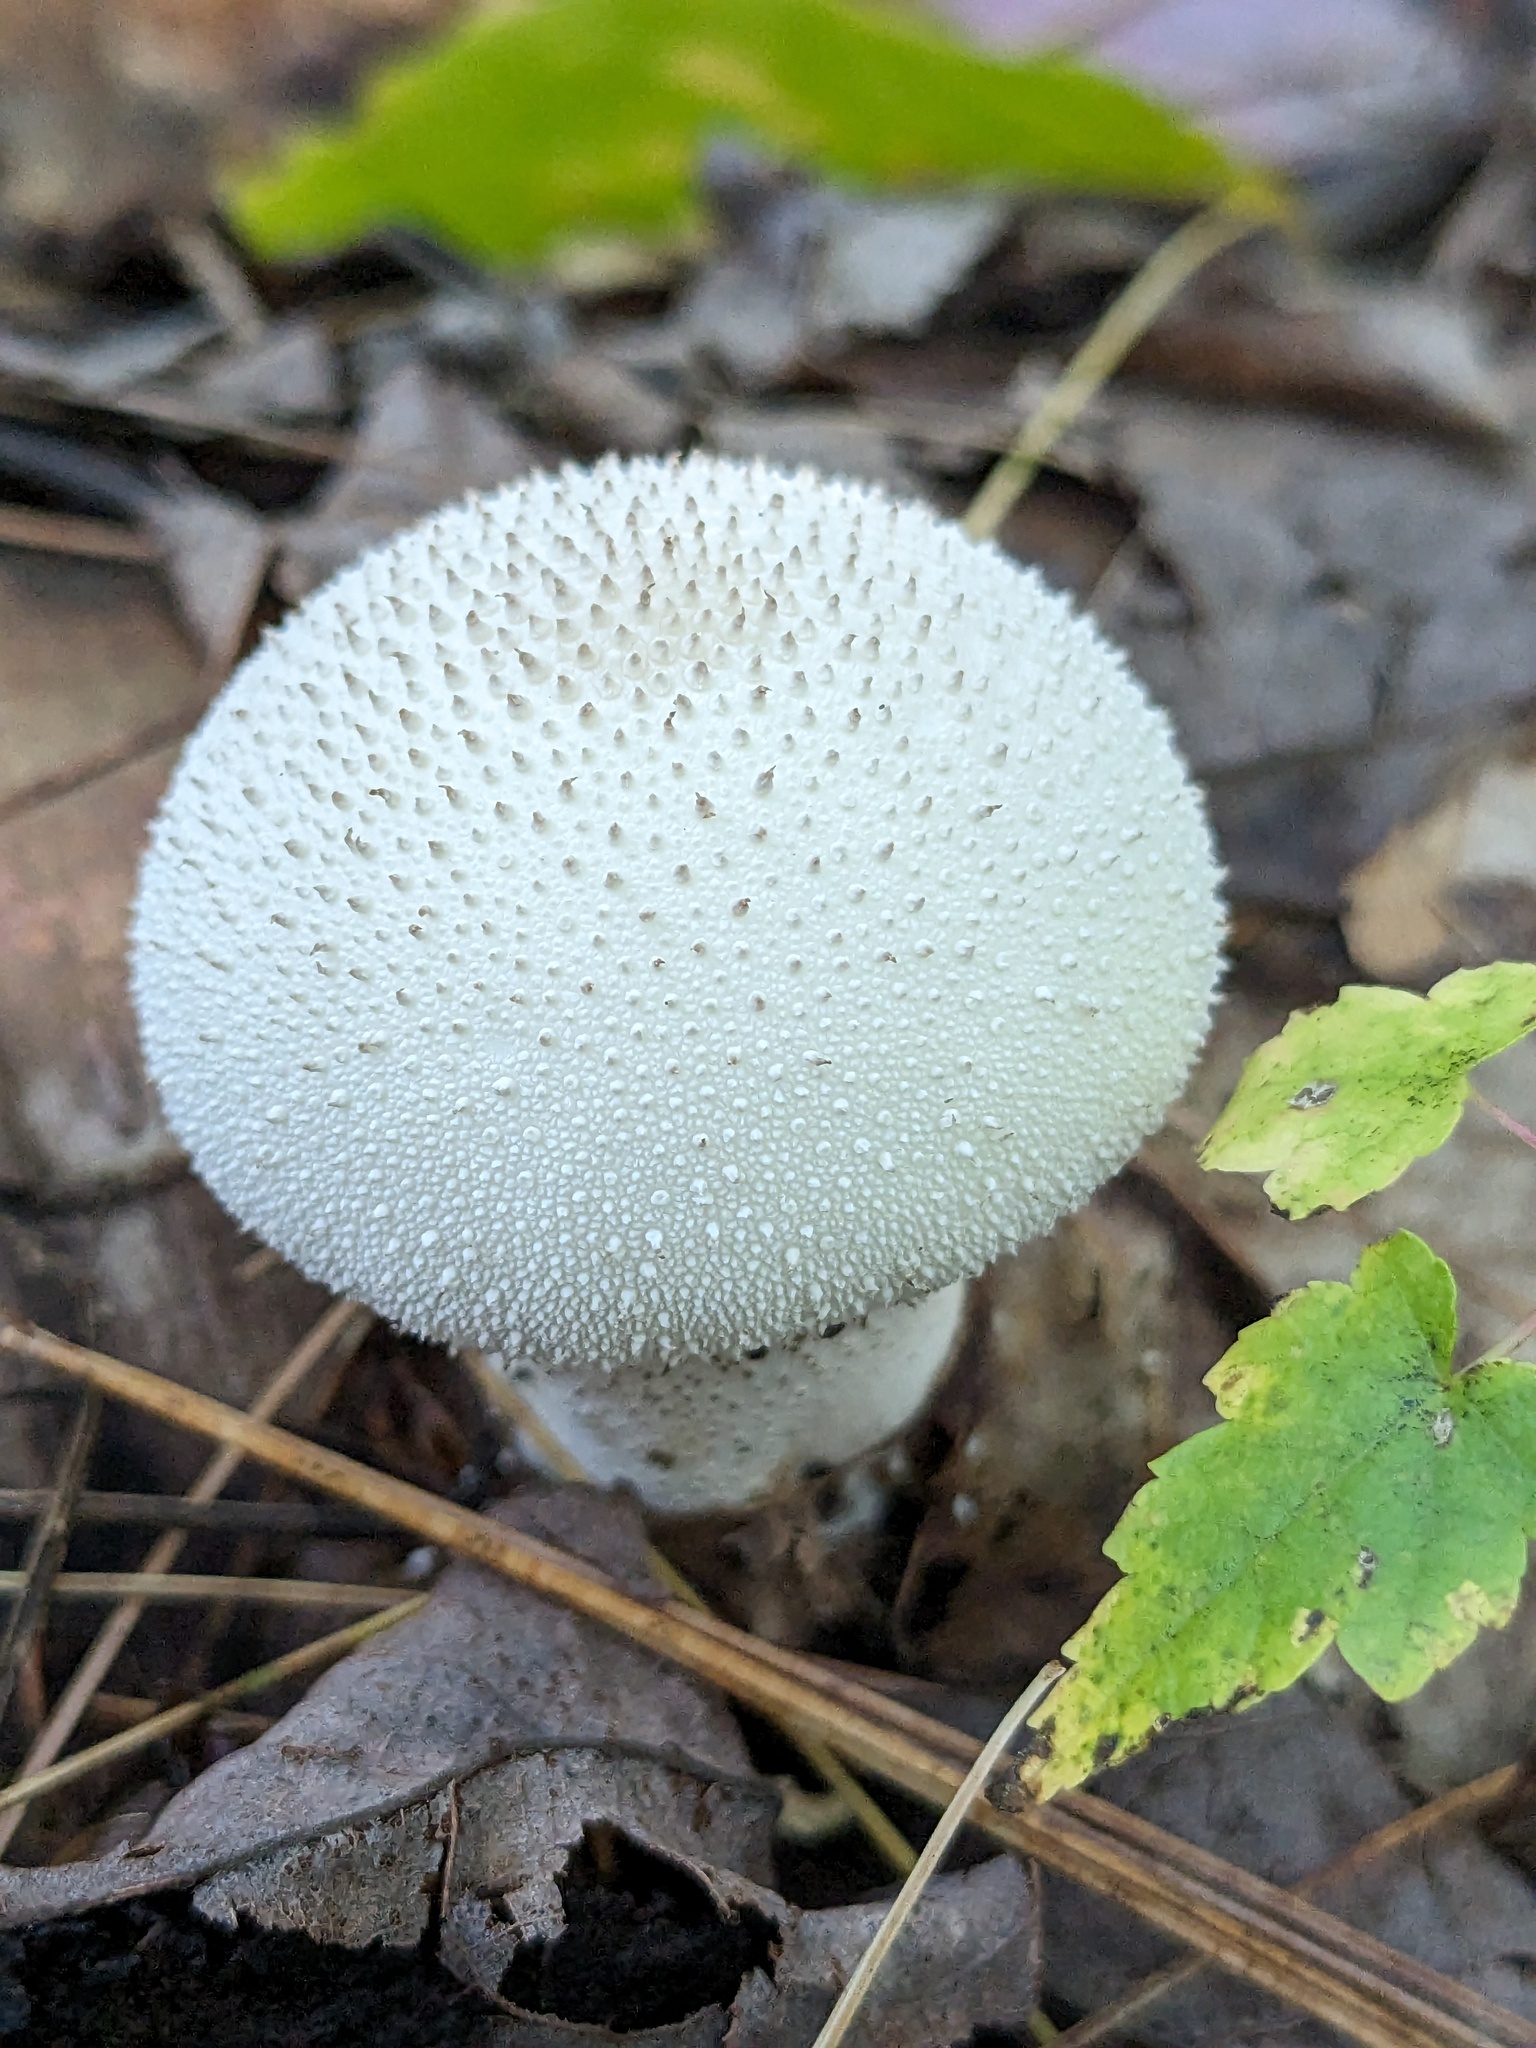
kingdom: Fungi
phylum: Basidiomycota
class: Agaricomycetes
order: Agaricales
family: Lycoperdaceae
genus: Lycoperdon
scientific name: Lycoperdon perlatum
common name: Common puffball
